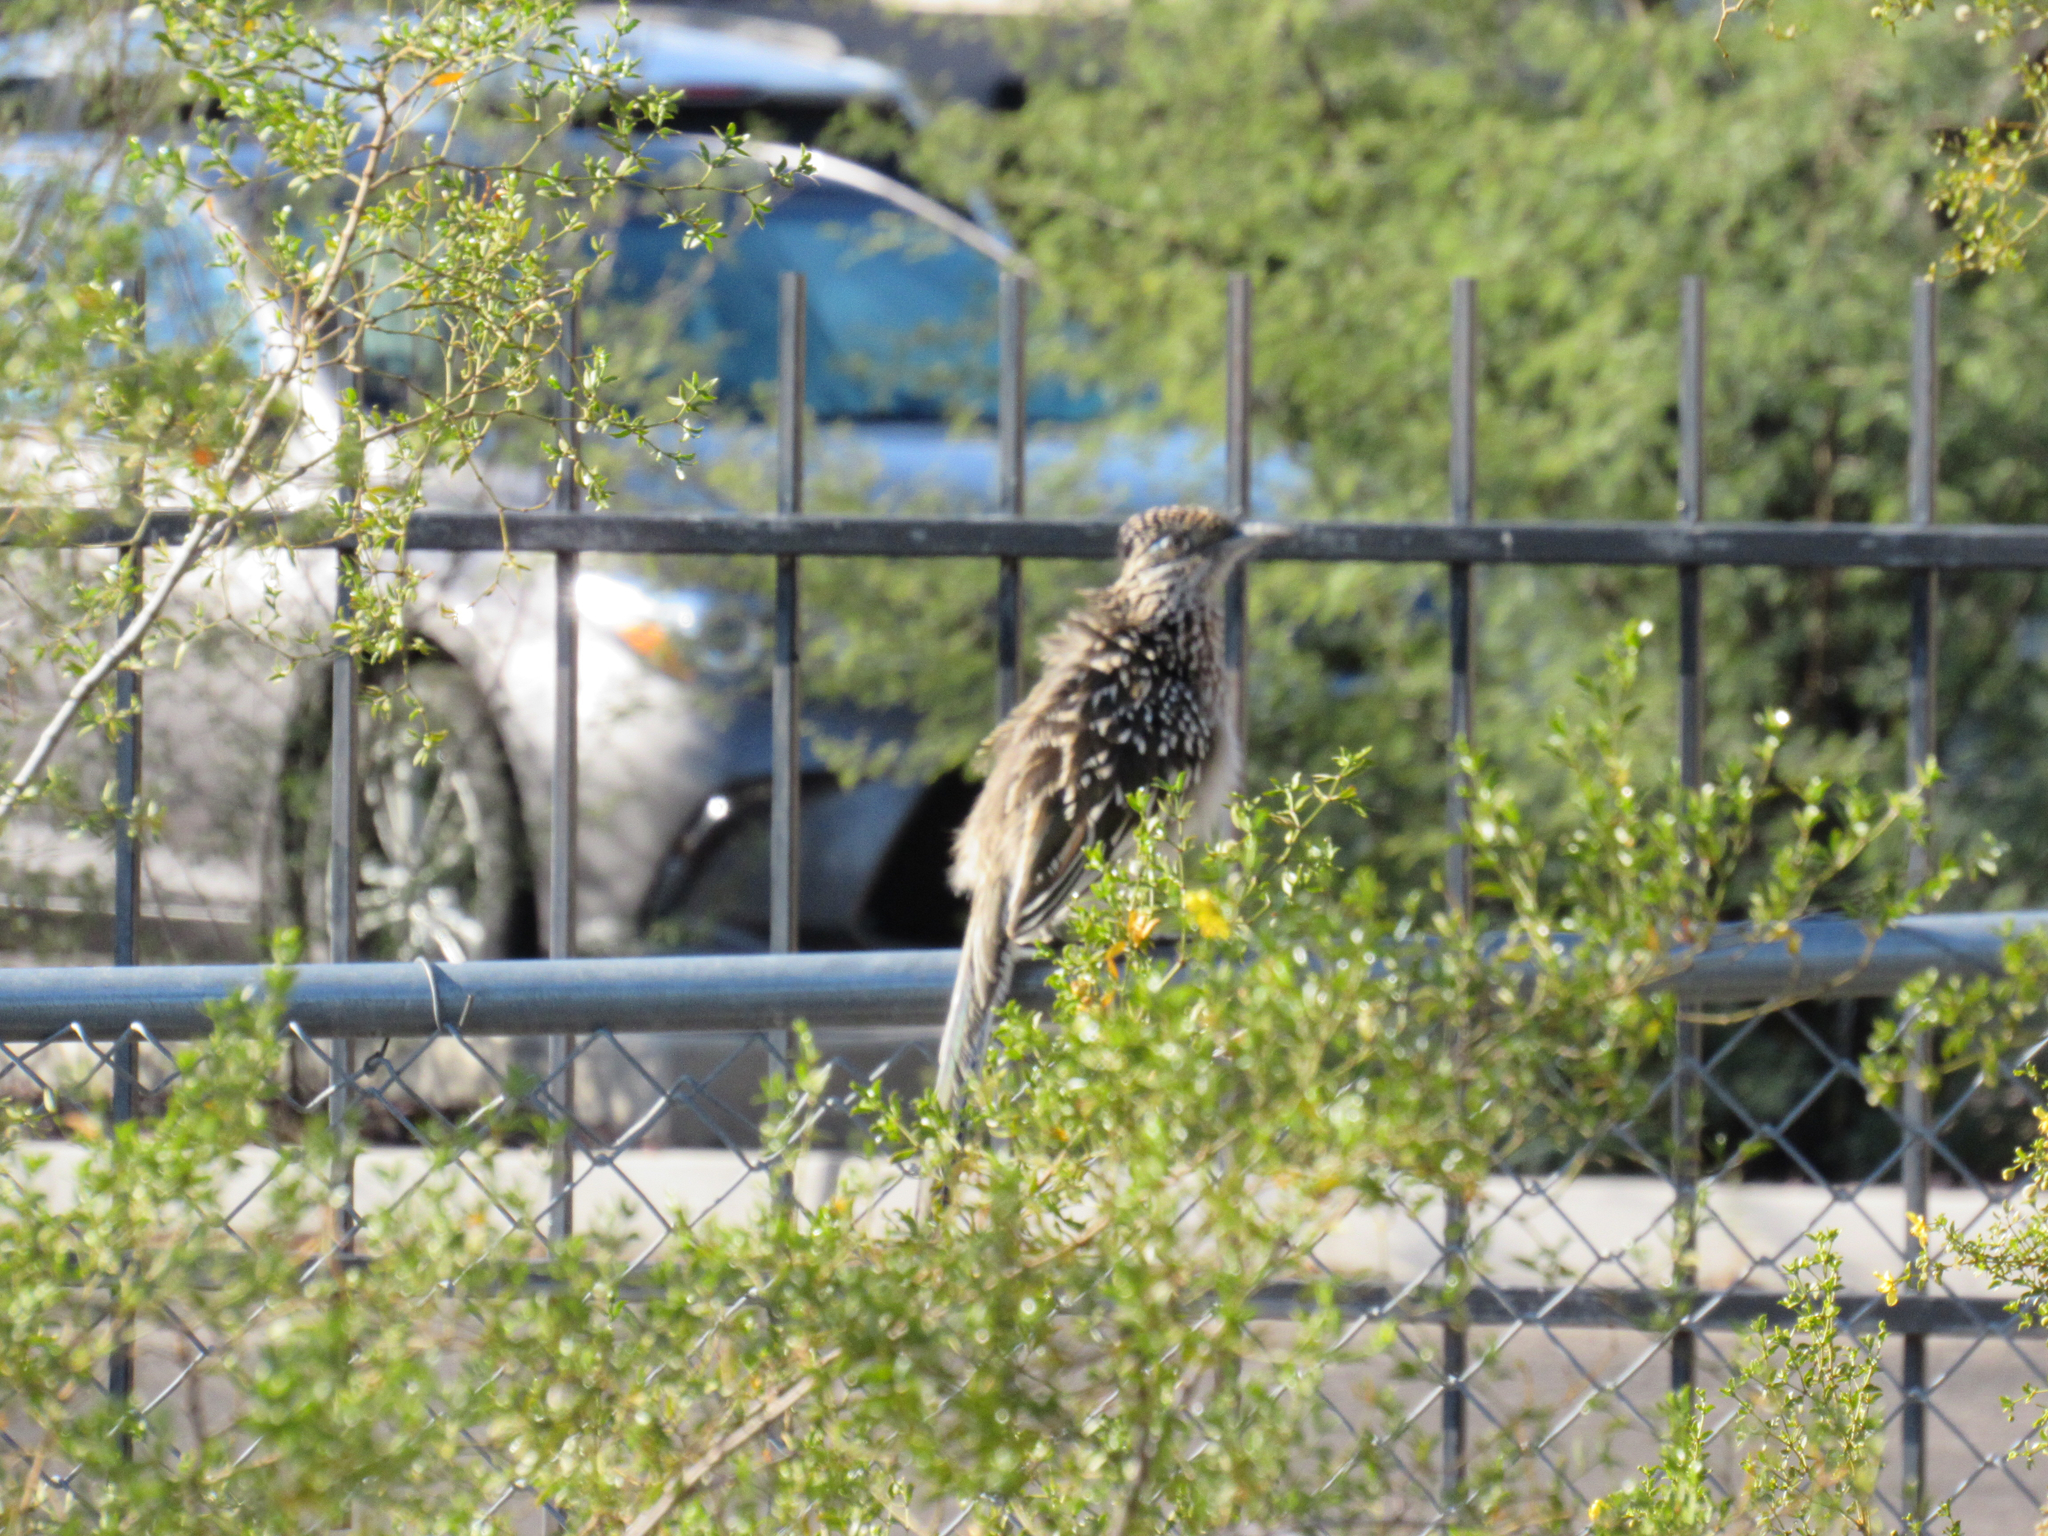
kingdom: Animalia
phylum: Chordata
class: Aves
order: Cuculiformes
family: Cuculidae
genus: Geococcyx
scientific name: Geococcyx californianus
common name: Greater roadrunner
